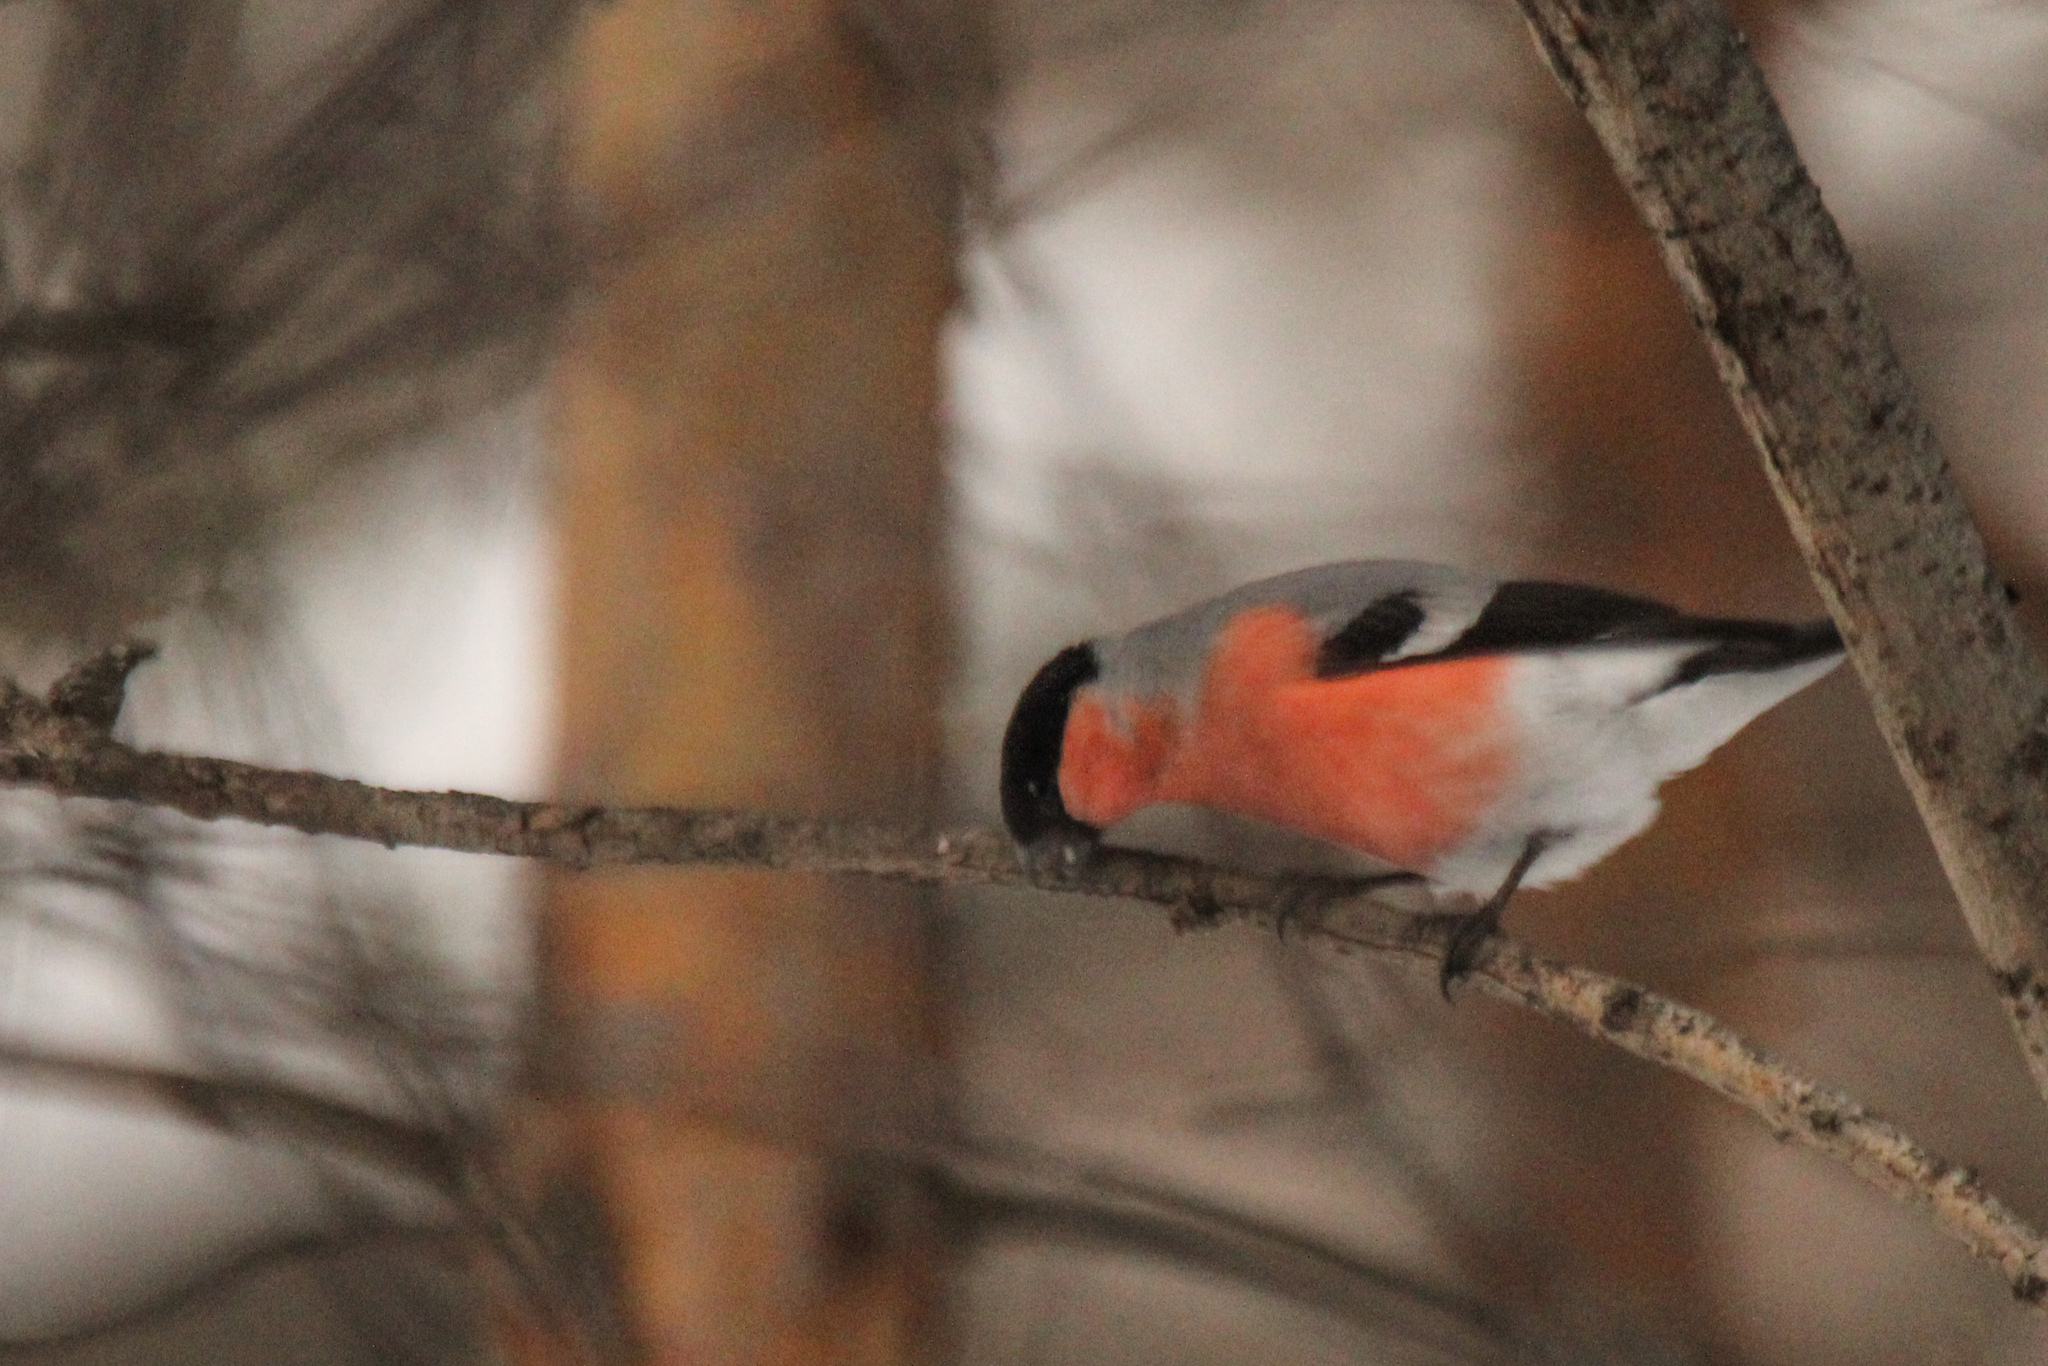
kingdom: Animalia
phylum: Chordata
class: Aves
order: Passeriformes
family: Fringillidae
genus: Pyrrhula
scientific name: Pyrrhula pyrrhula
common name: Eurasian bullfinch
